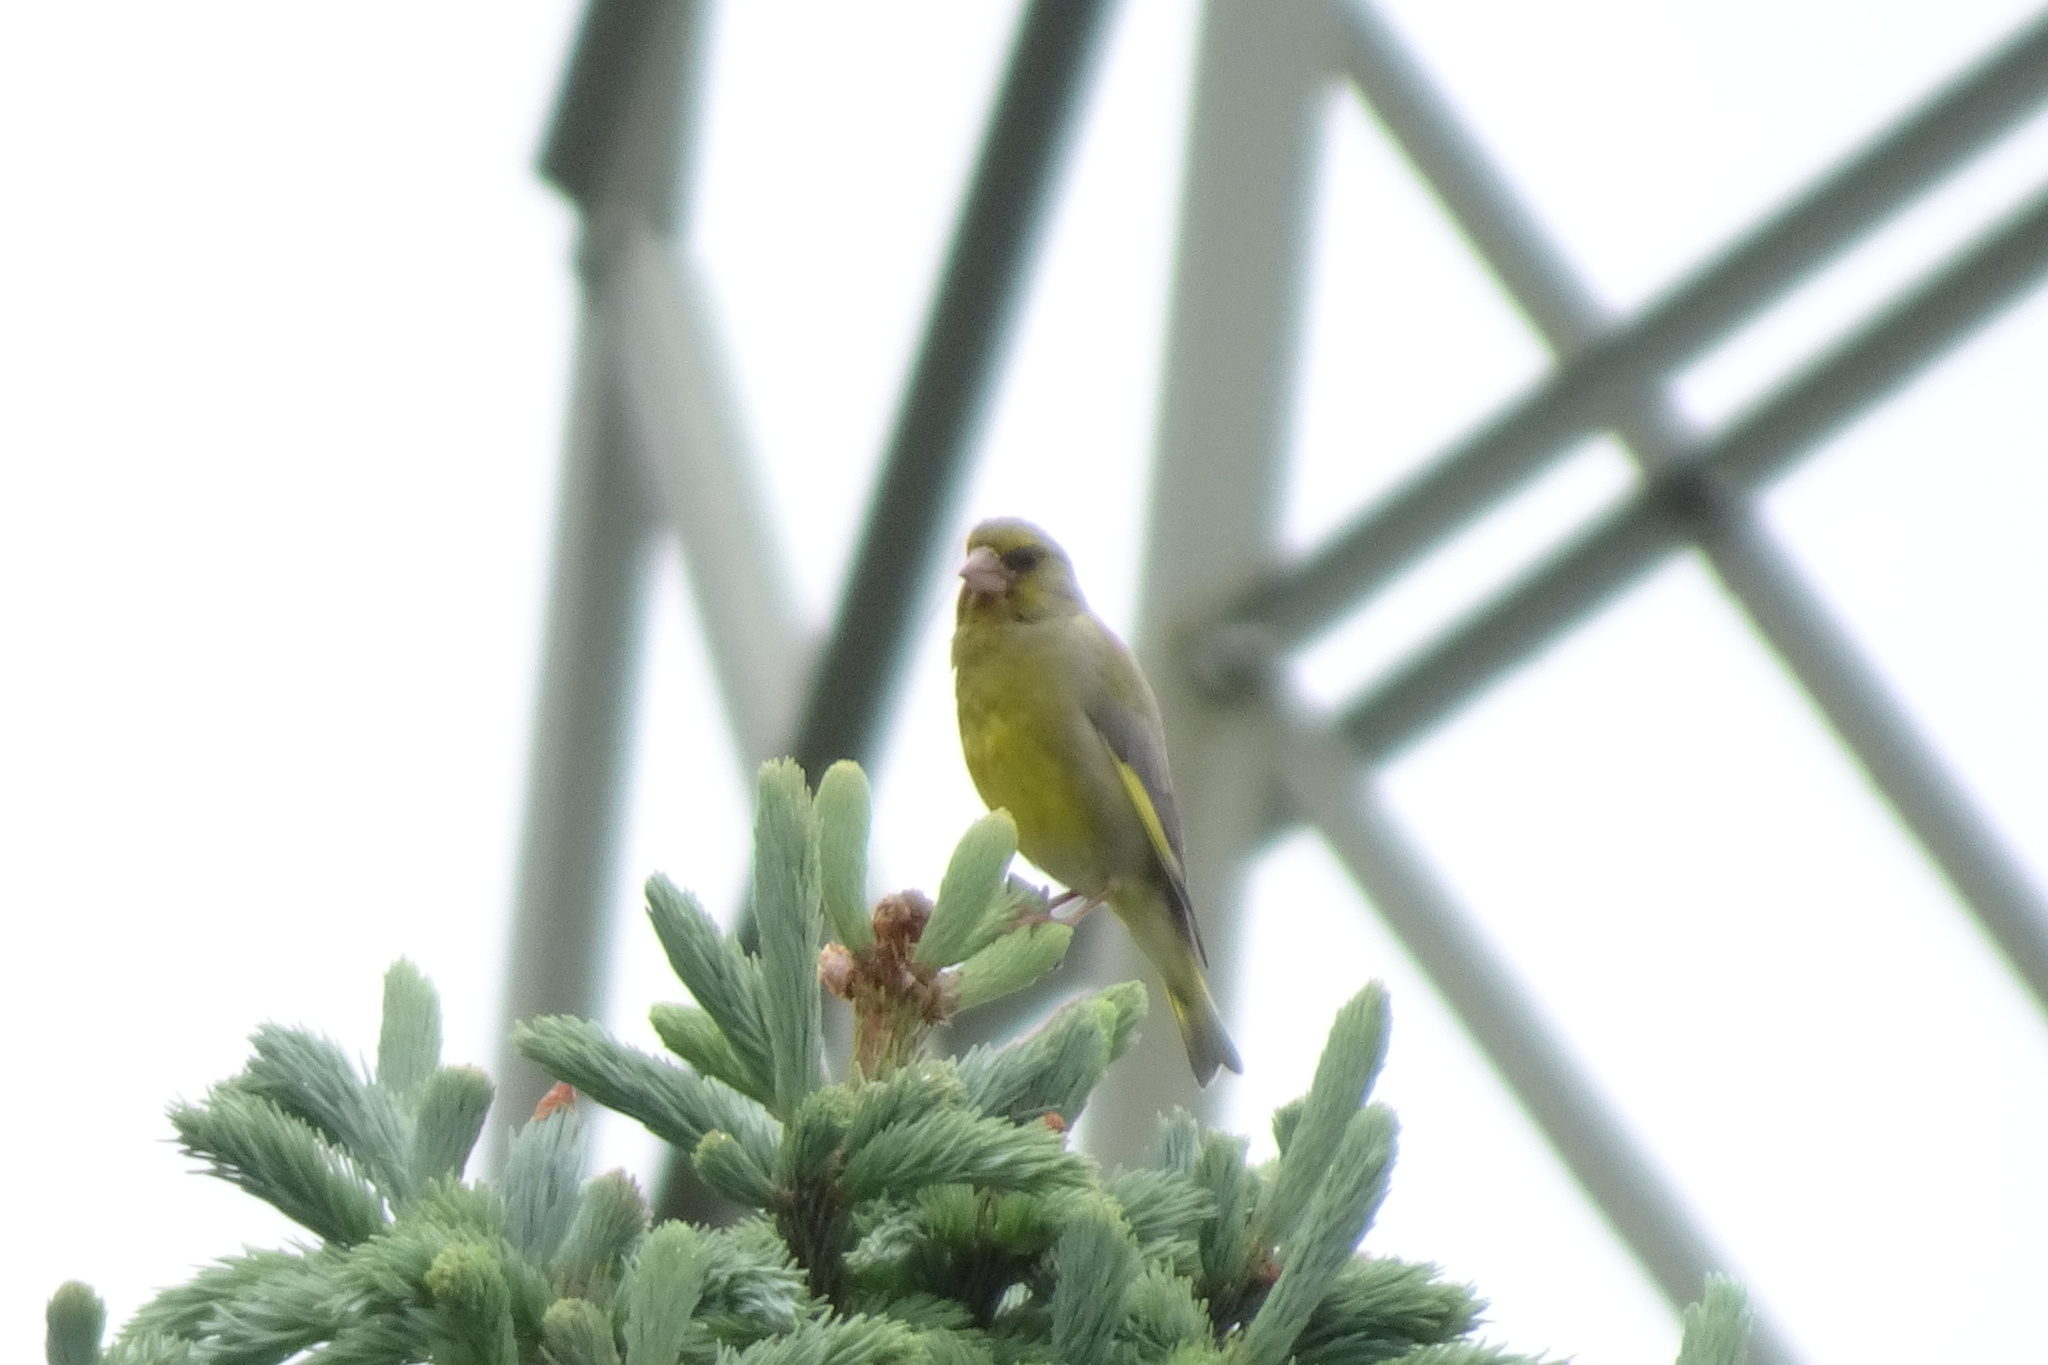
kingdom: Plantae
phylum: Tracheophyta
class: Liliopsida
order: Poales
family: Poaceae
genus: Chloris
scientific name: Chloris chloris
